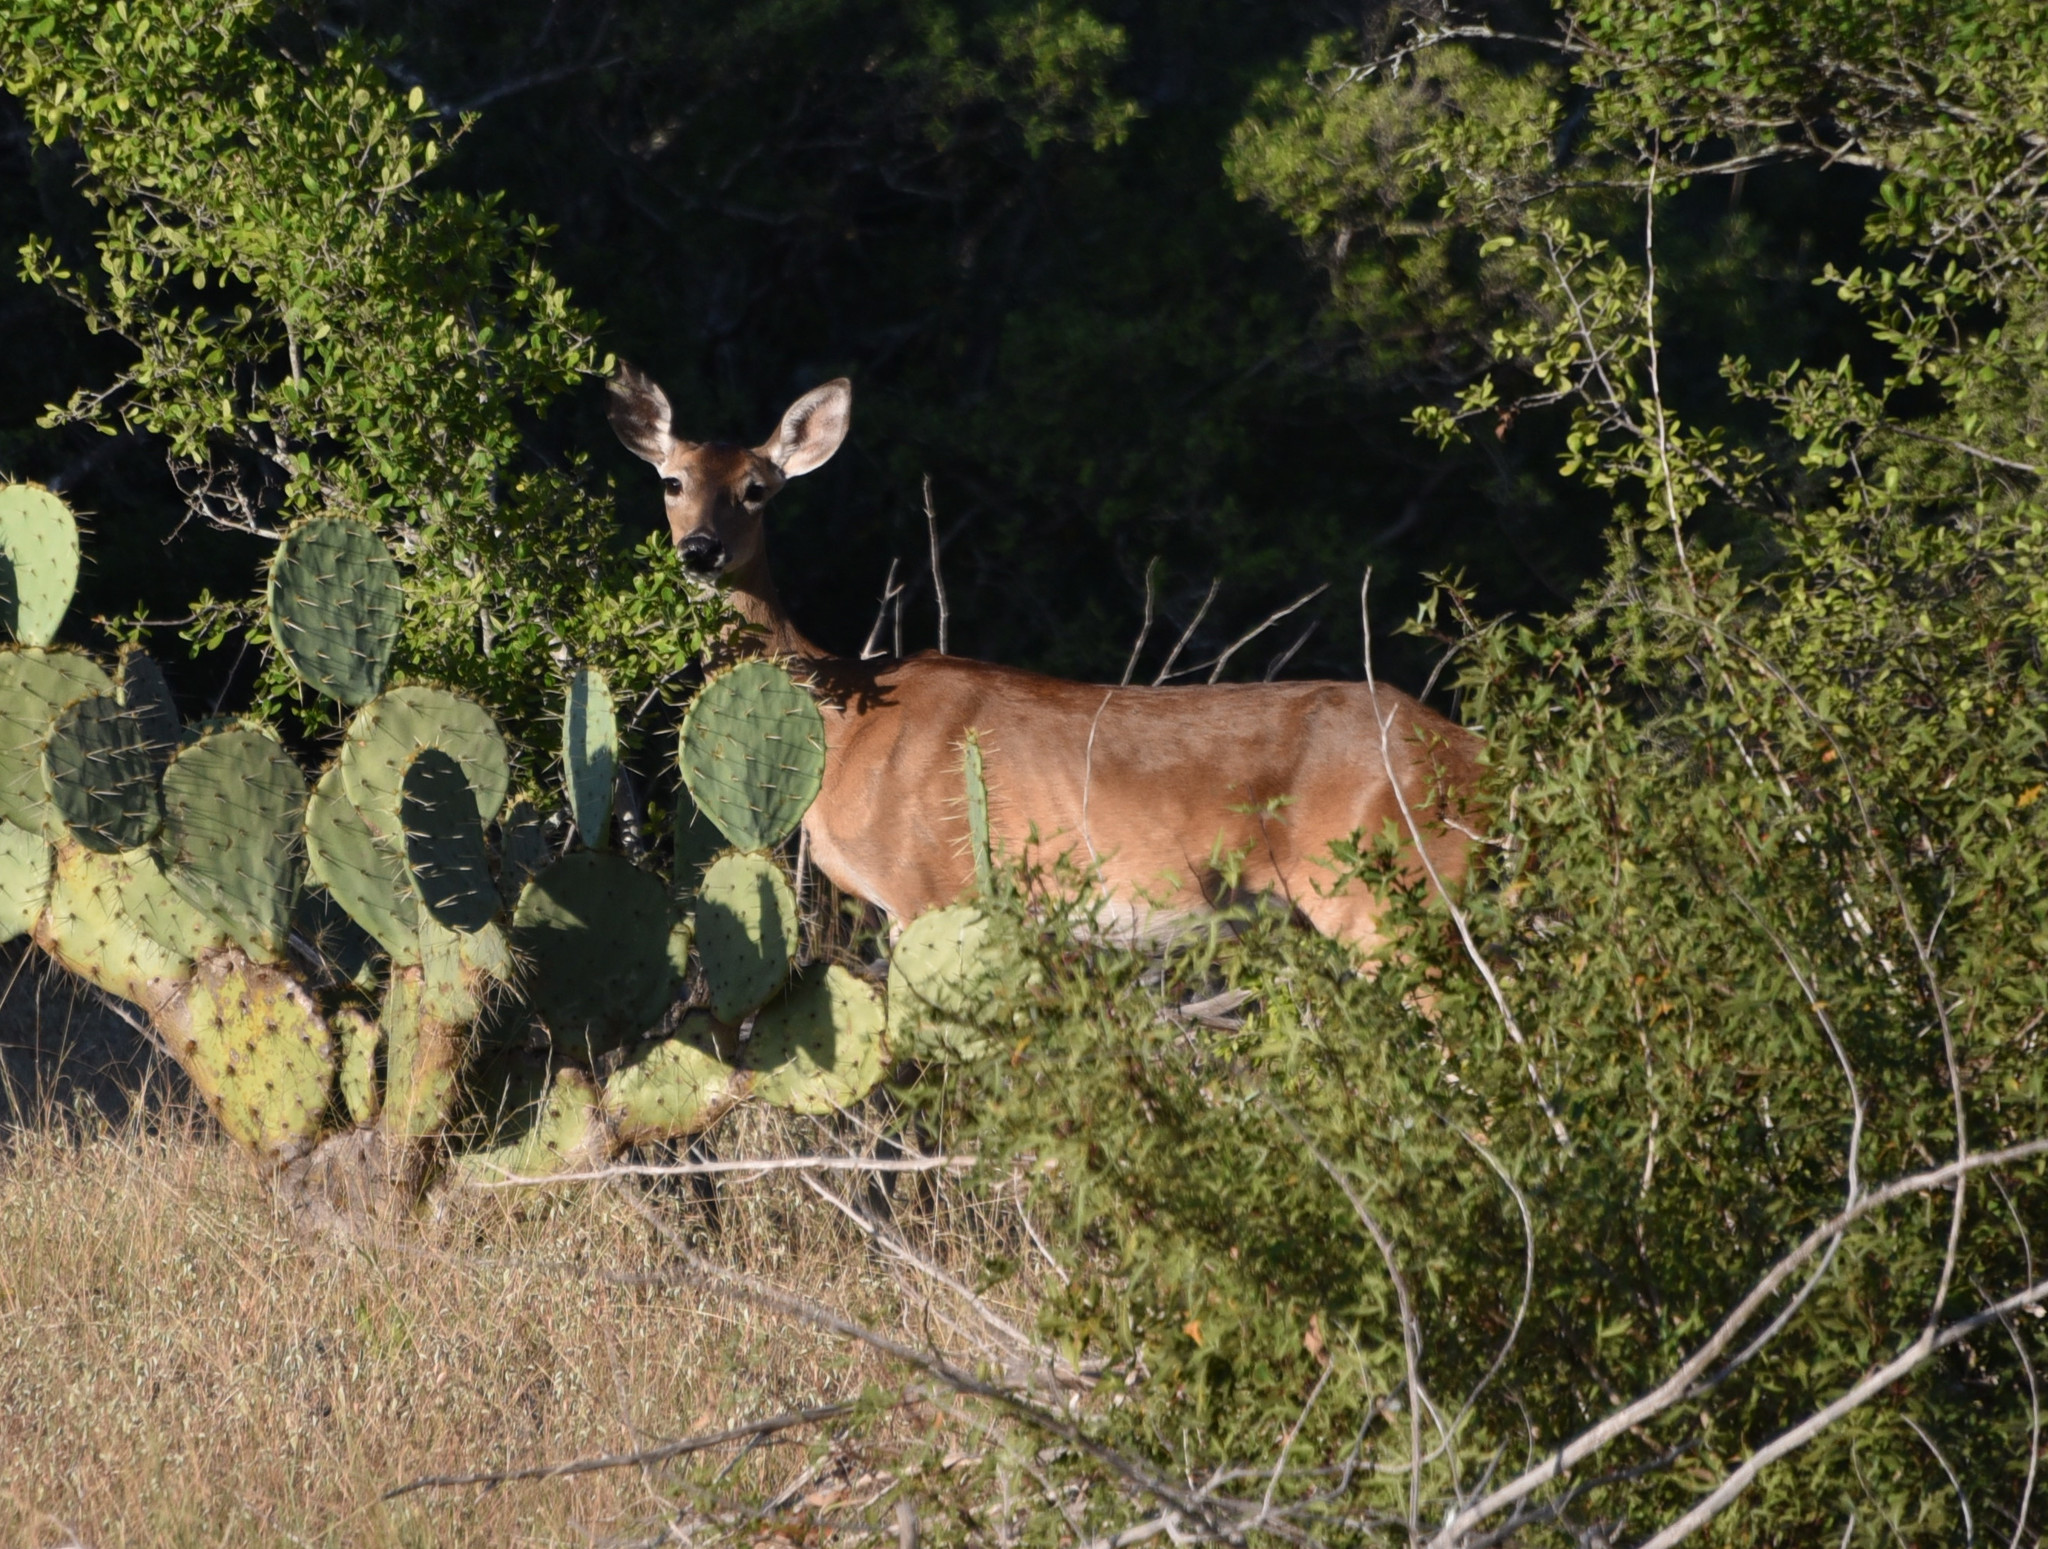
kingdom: Animalia
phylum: Chordata
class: Mammalia
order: Artiodactyla
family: Cervidae
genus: Odocoileus
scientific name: Odocoileus virginianus
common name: White-tailed deer
